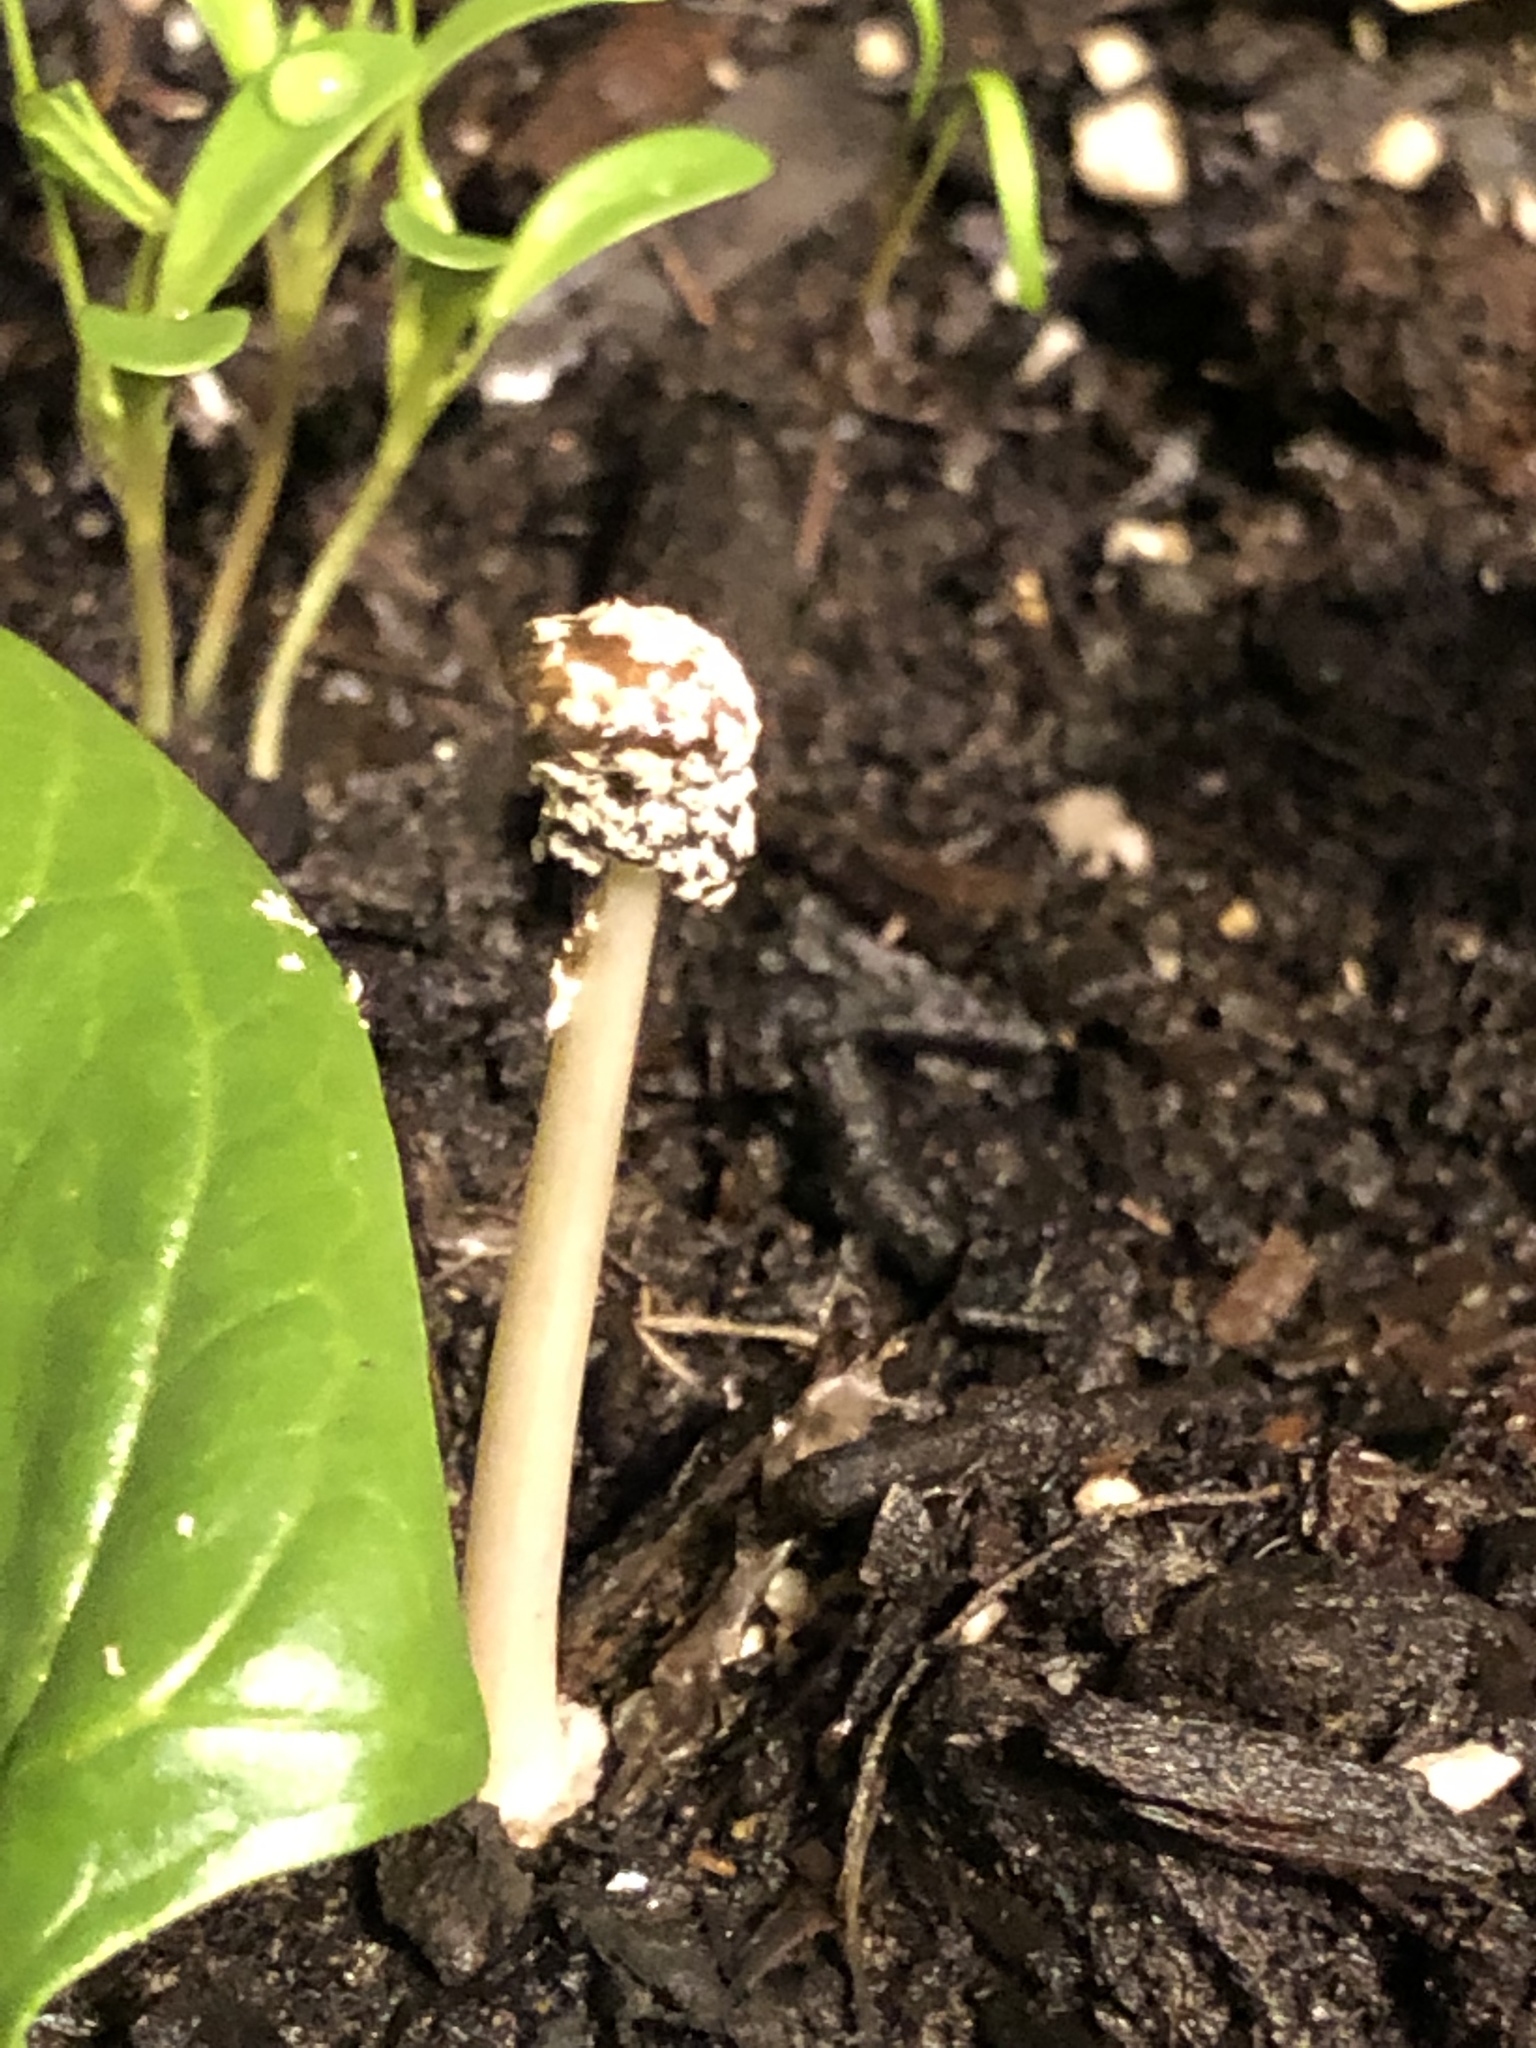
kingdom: Fungi
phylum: Basidiomycota
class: Agaricomycetes
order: Agaricales
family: Psathyrellaceae
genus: Coprinopsis
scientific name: Coprinopsis picacea
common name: Magpie inkcap
